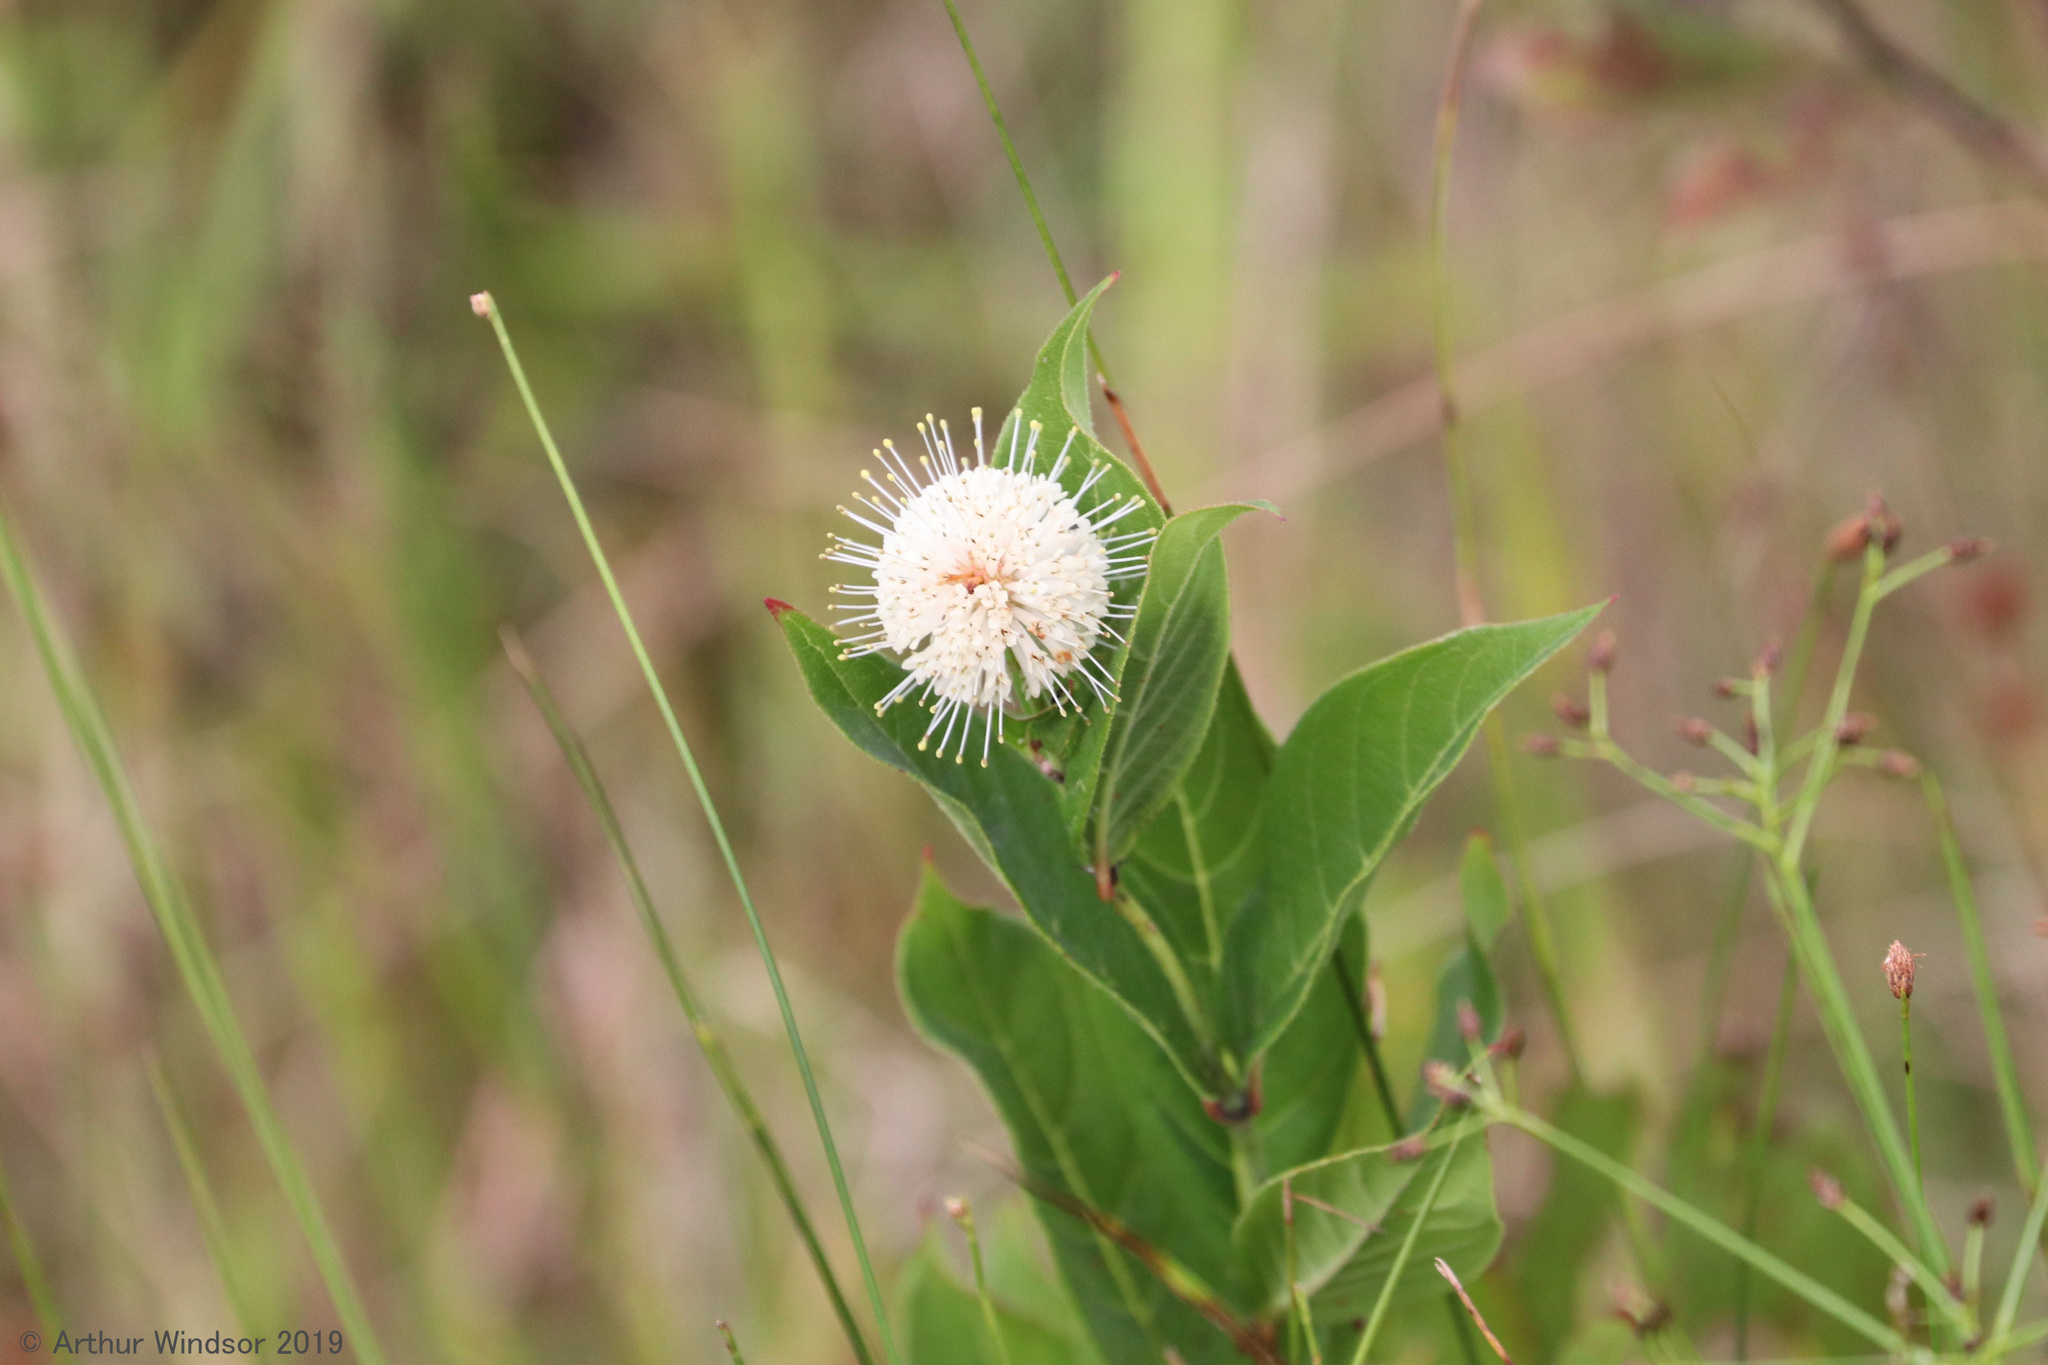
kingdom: Plantae
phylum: Tracheophyta
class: Magnoliopsida
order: Gentianales
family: Rubiaceae
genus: Cephalanthus
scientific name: Cephalanthus occidentalis
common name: Button-willow
